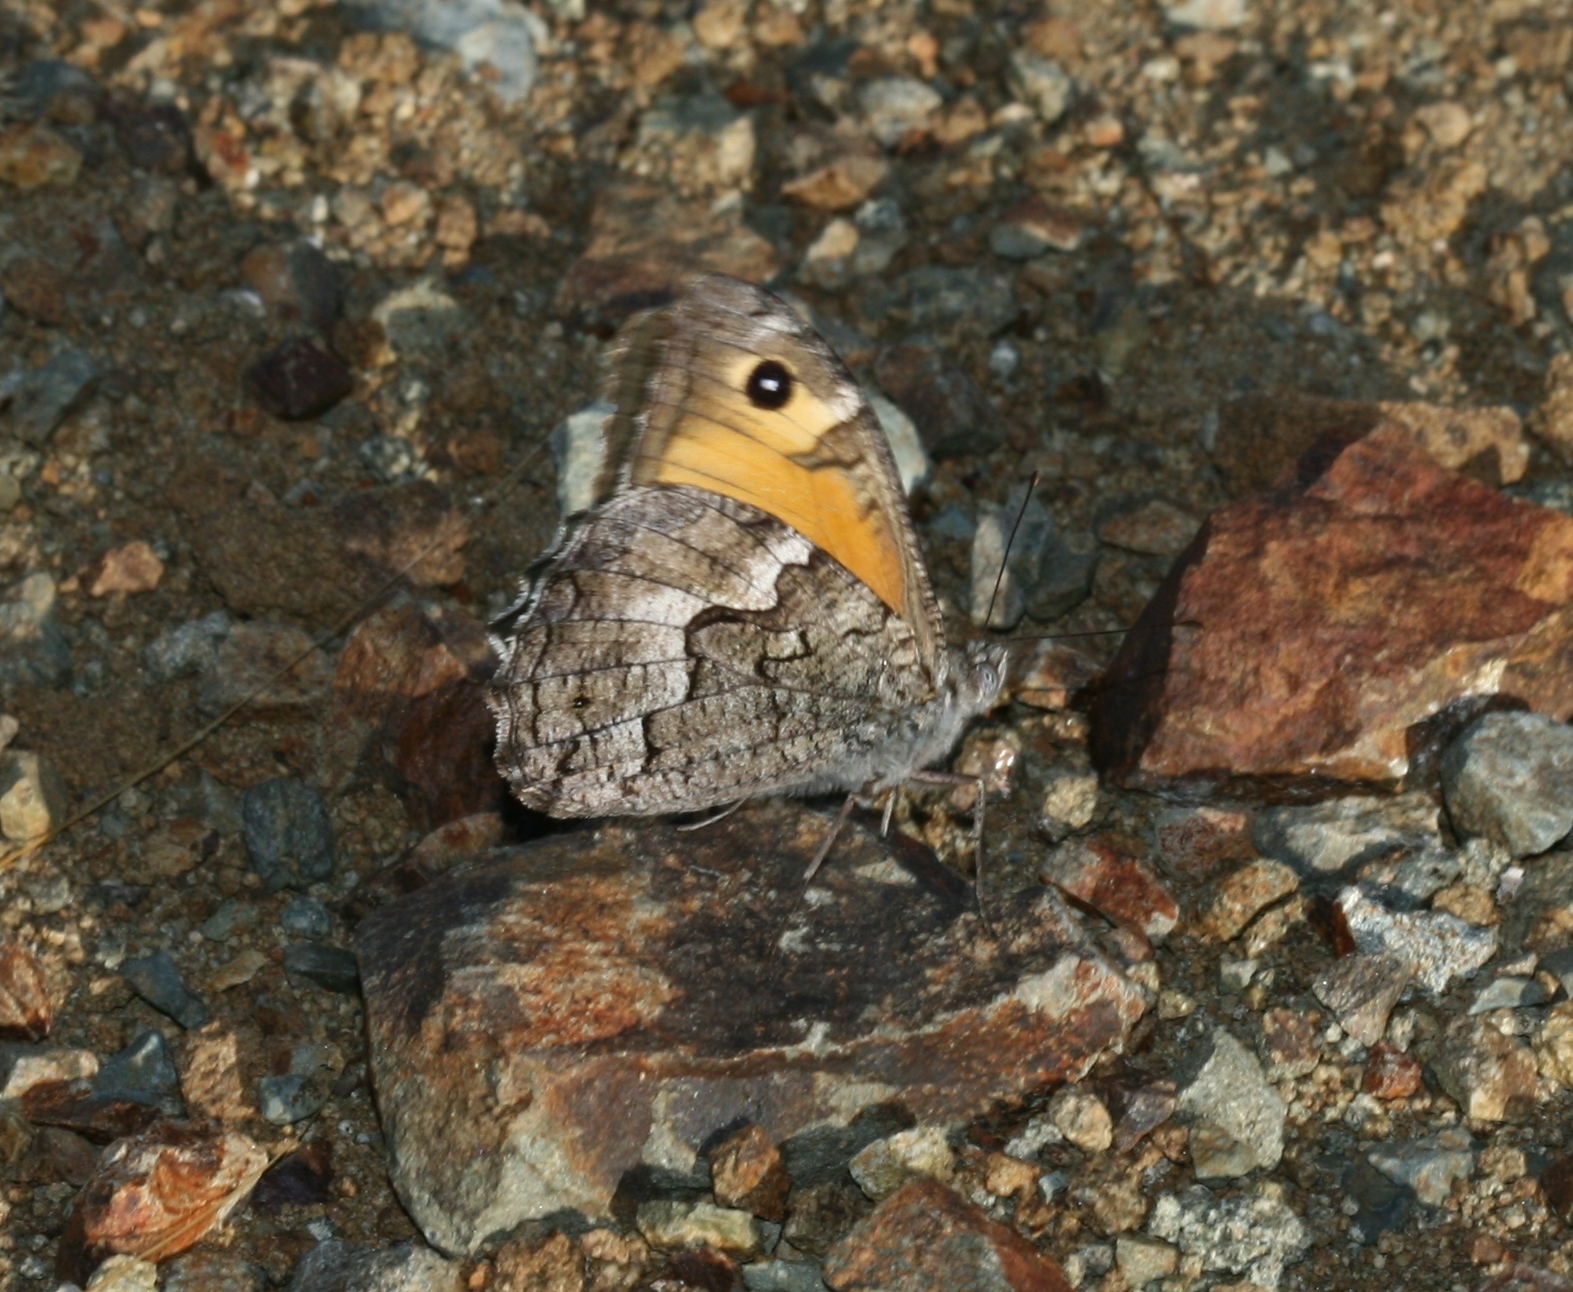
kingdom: Animalia
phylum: Arthropoda
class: Insecta
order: Lepidoptera
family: Nymphalidae
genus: Hipparchia
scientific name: Hipparchia cypriensis
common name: Cyprus grayling
